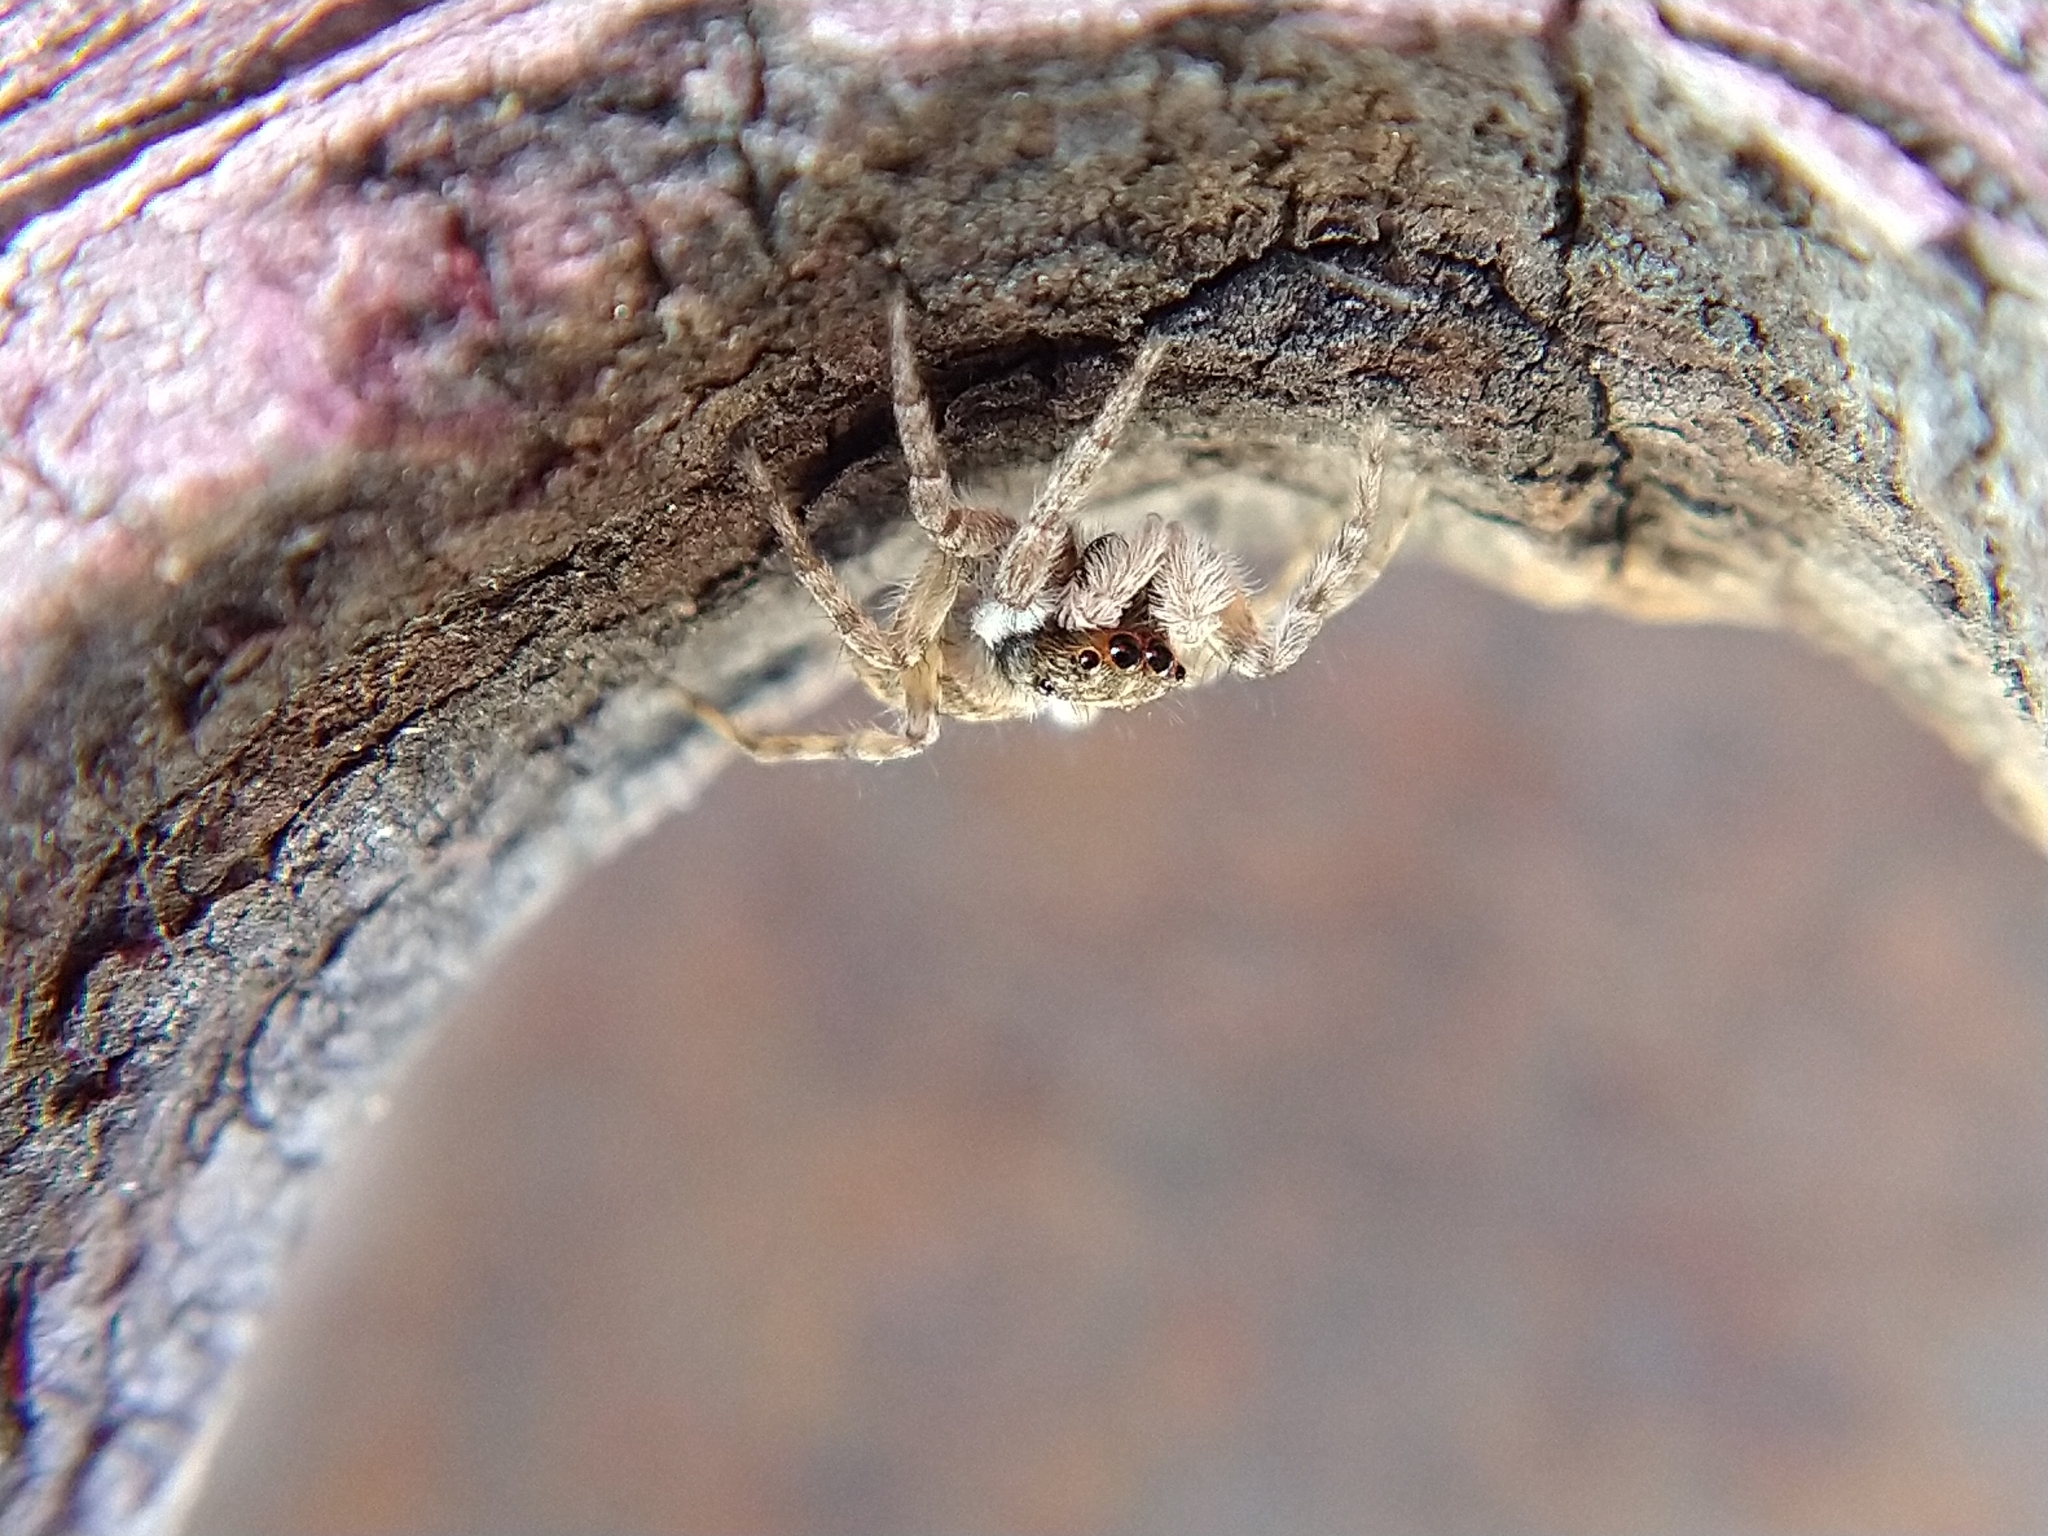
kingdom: Animalia
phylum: Arthropoda
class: Arachnida
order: Araneae
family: Salticidae
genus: Menemerus
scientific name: Menemerus semilimbatus
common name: Jumping spider
